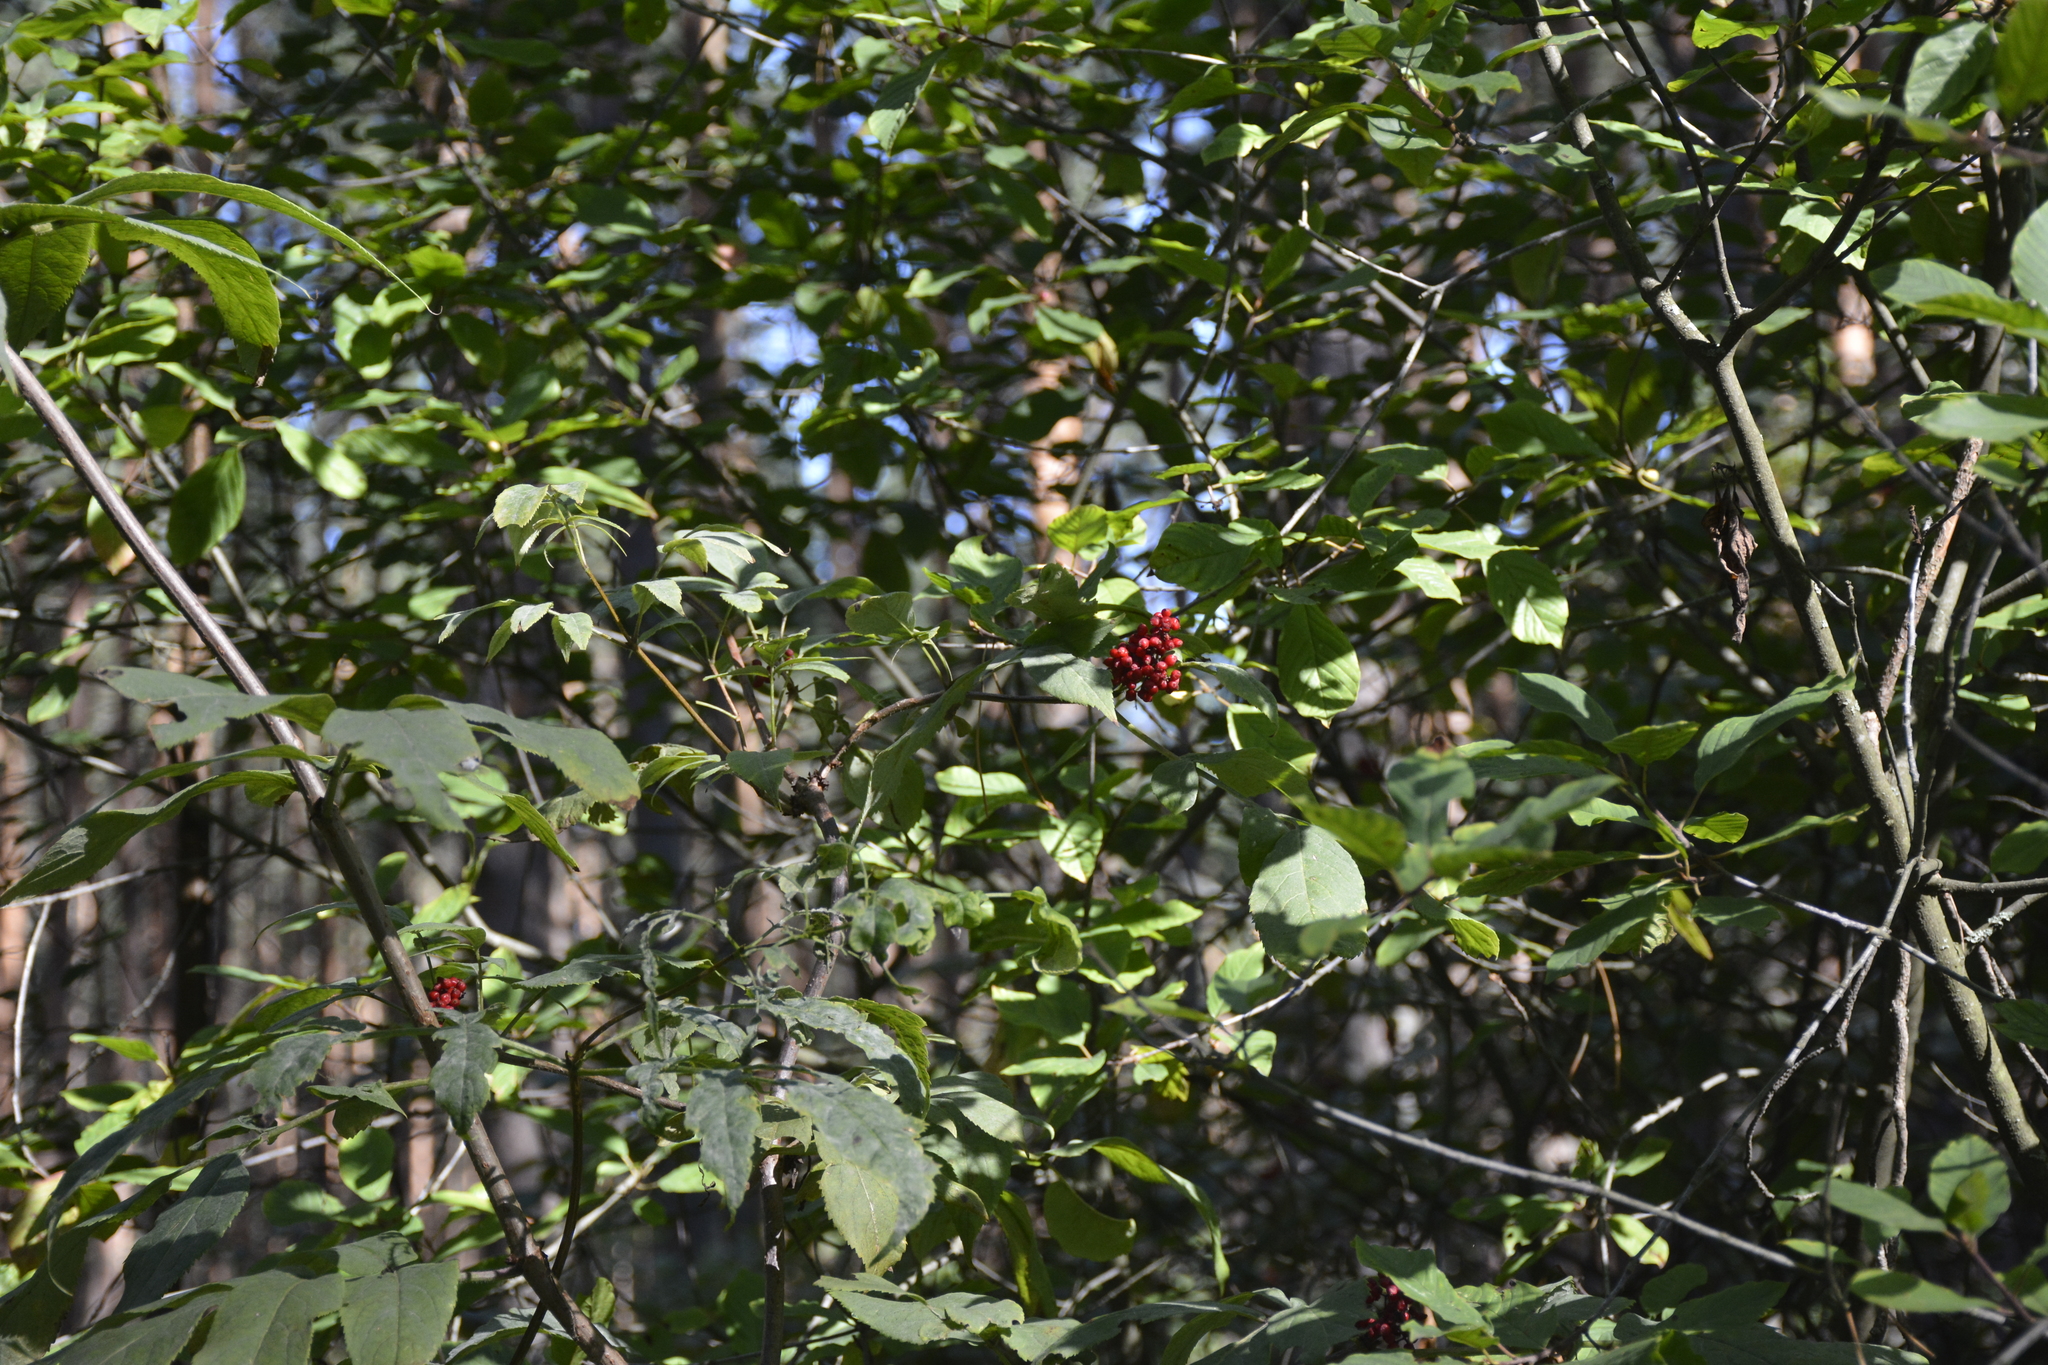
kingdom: Plantae
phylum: Tracheophyta
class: Magnoliopsida
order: Dipsacales
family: Viburnaceae
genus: Sambucus
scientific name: Sambucus racemosa
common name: Red-berried elder
